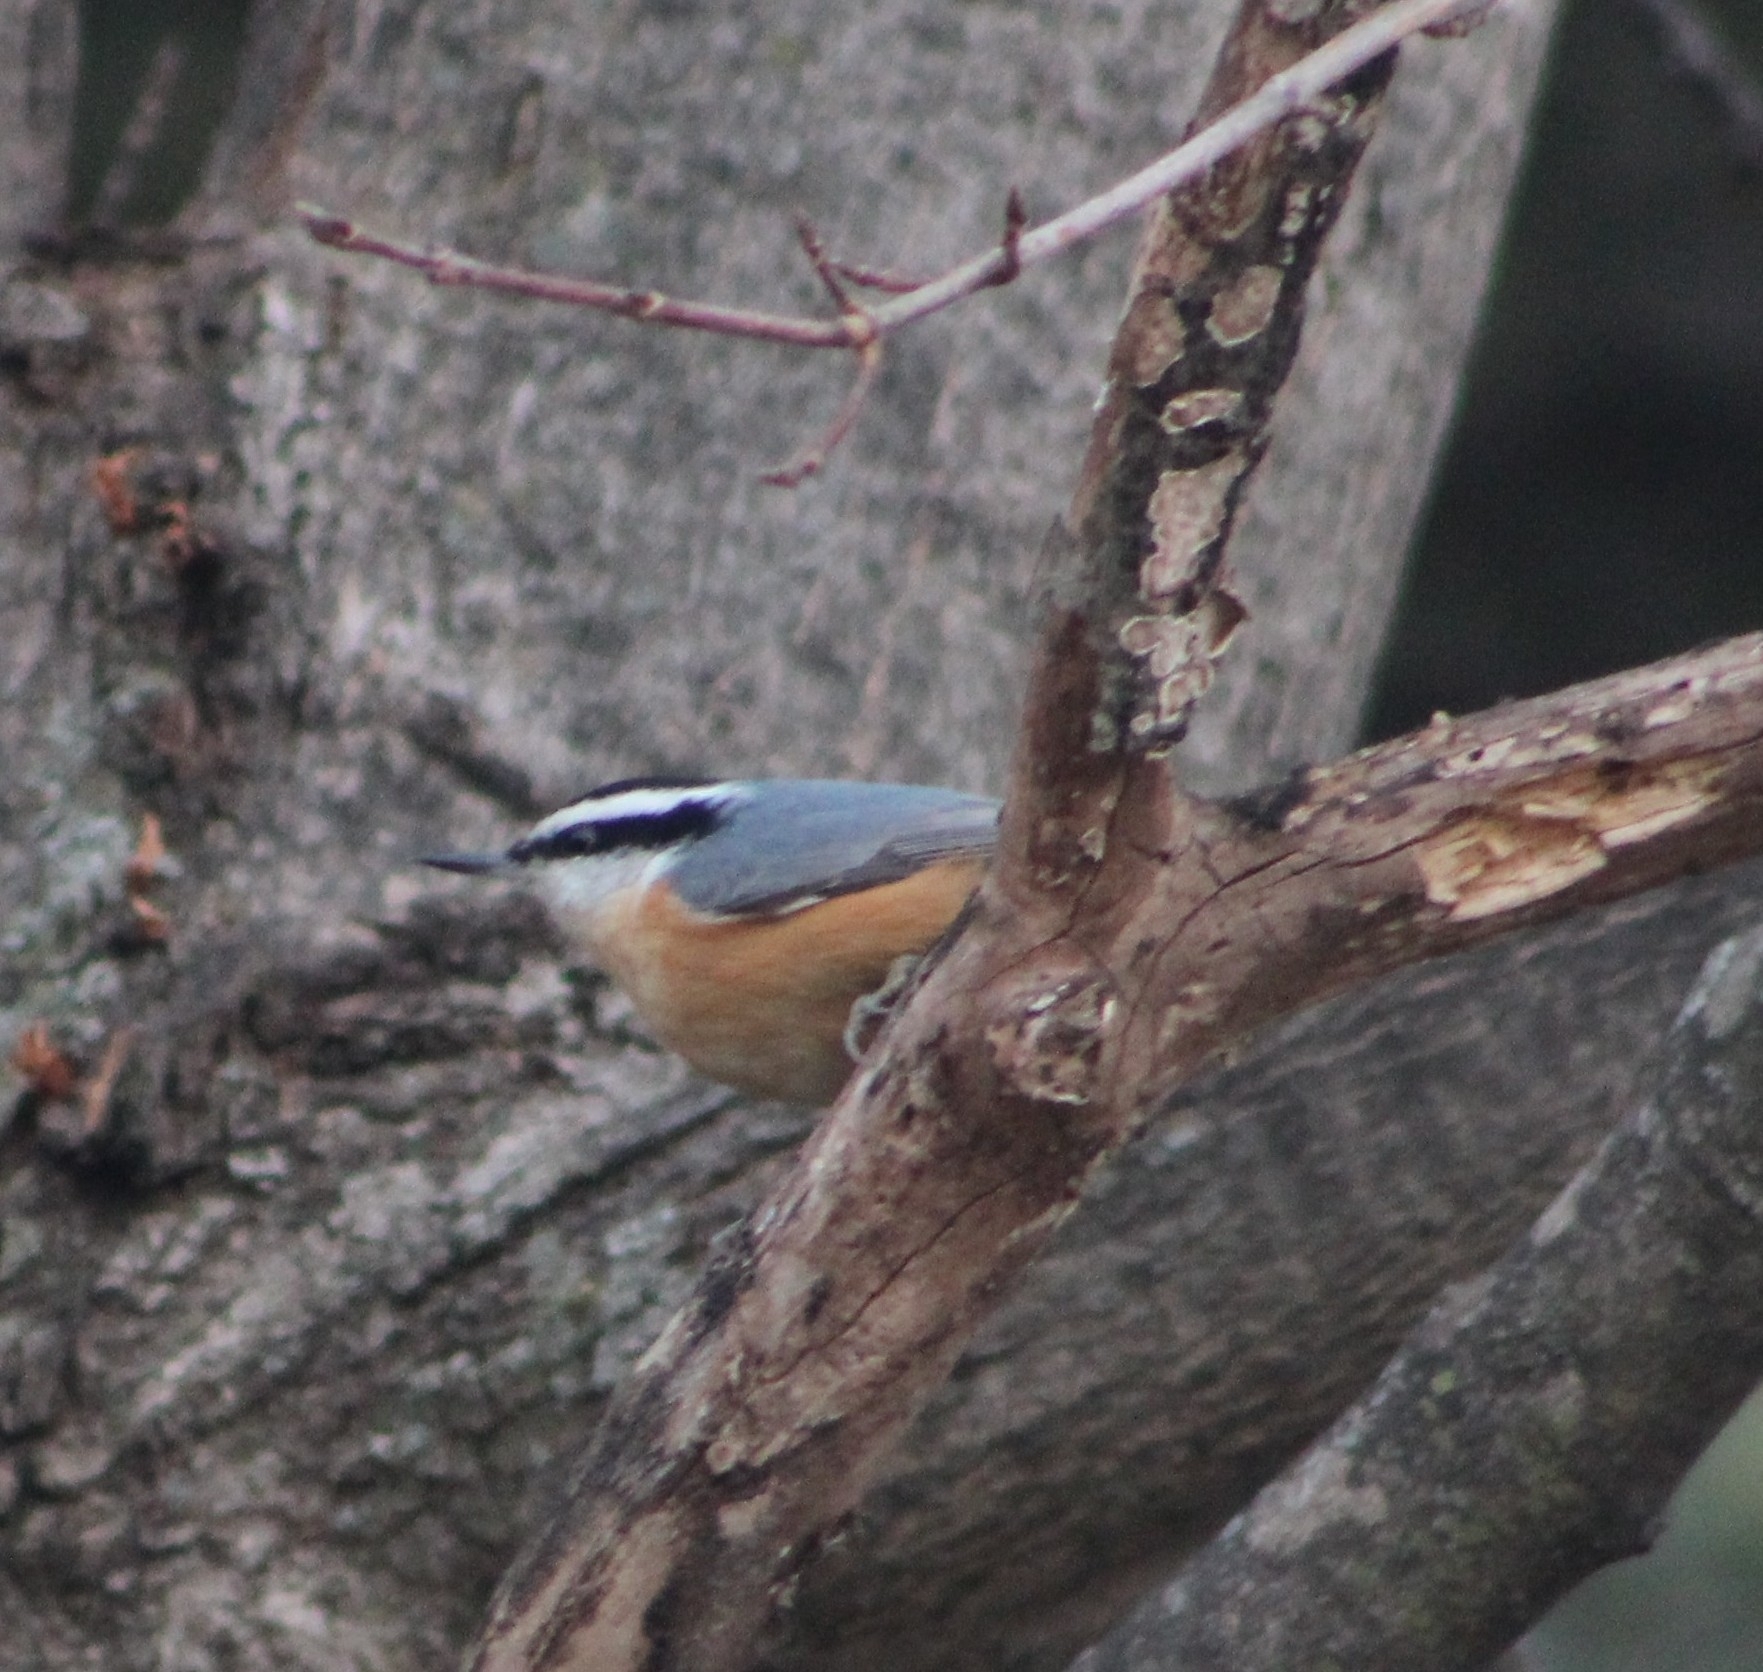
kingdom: Animalia
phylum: Chordata
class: Aves
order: Passeriformes
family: Sittidae
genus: Sitta
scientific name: Sitta canadensis
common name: Red-breasted nuthatch
